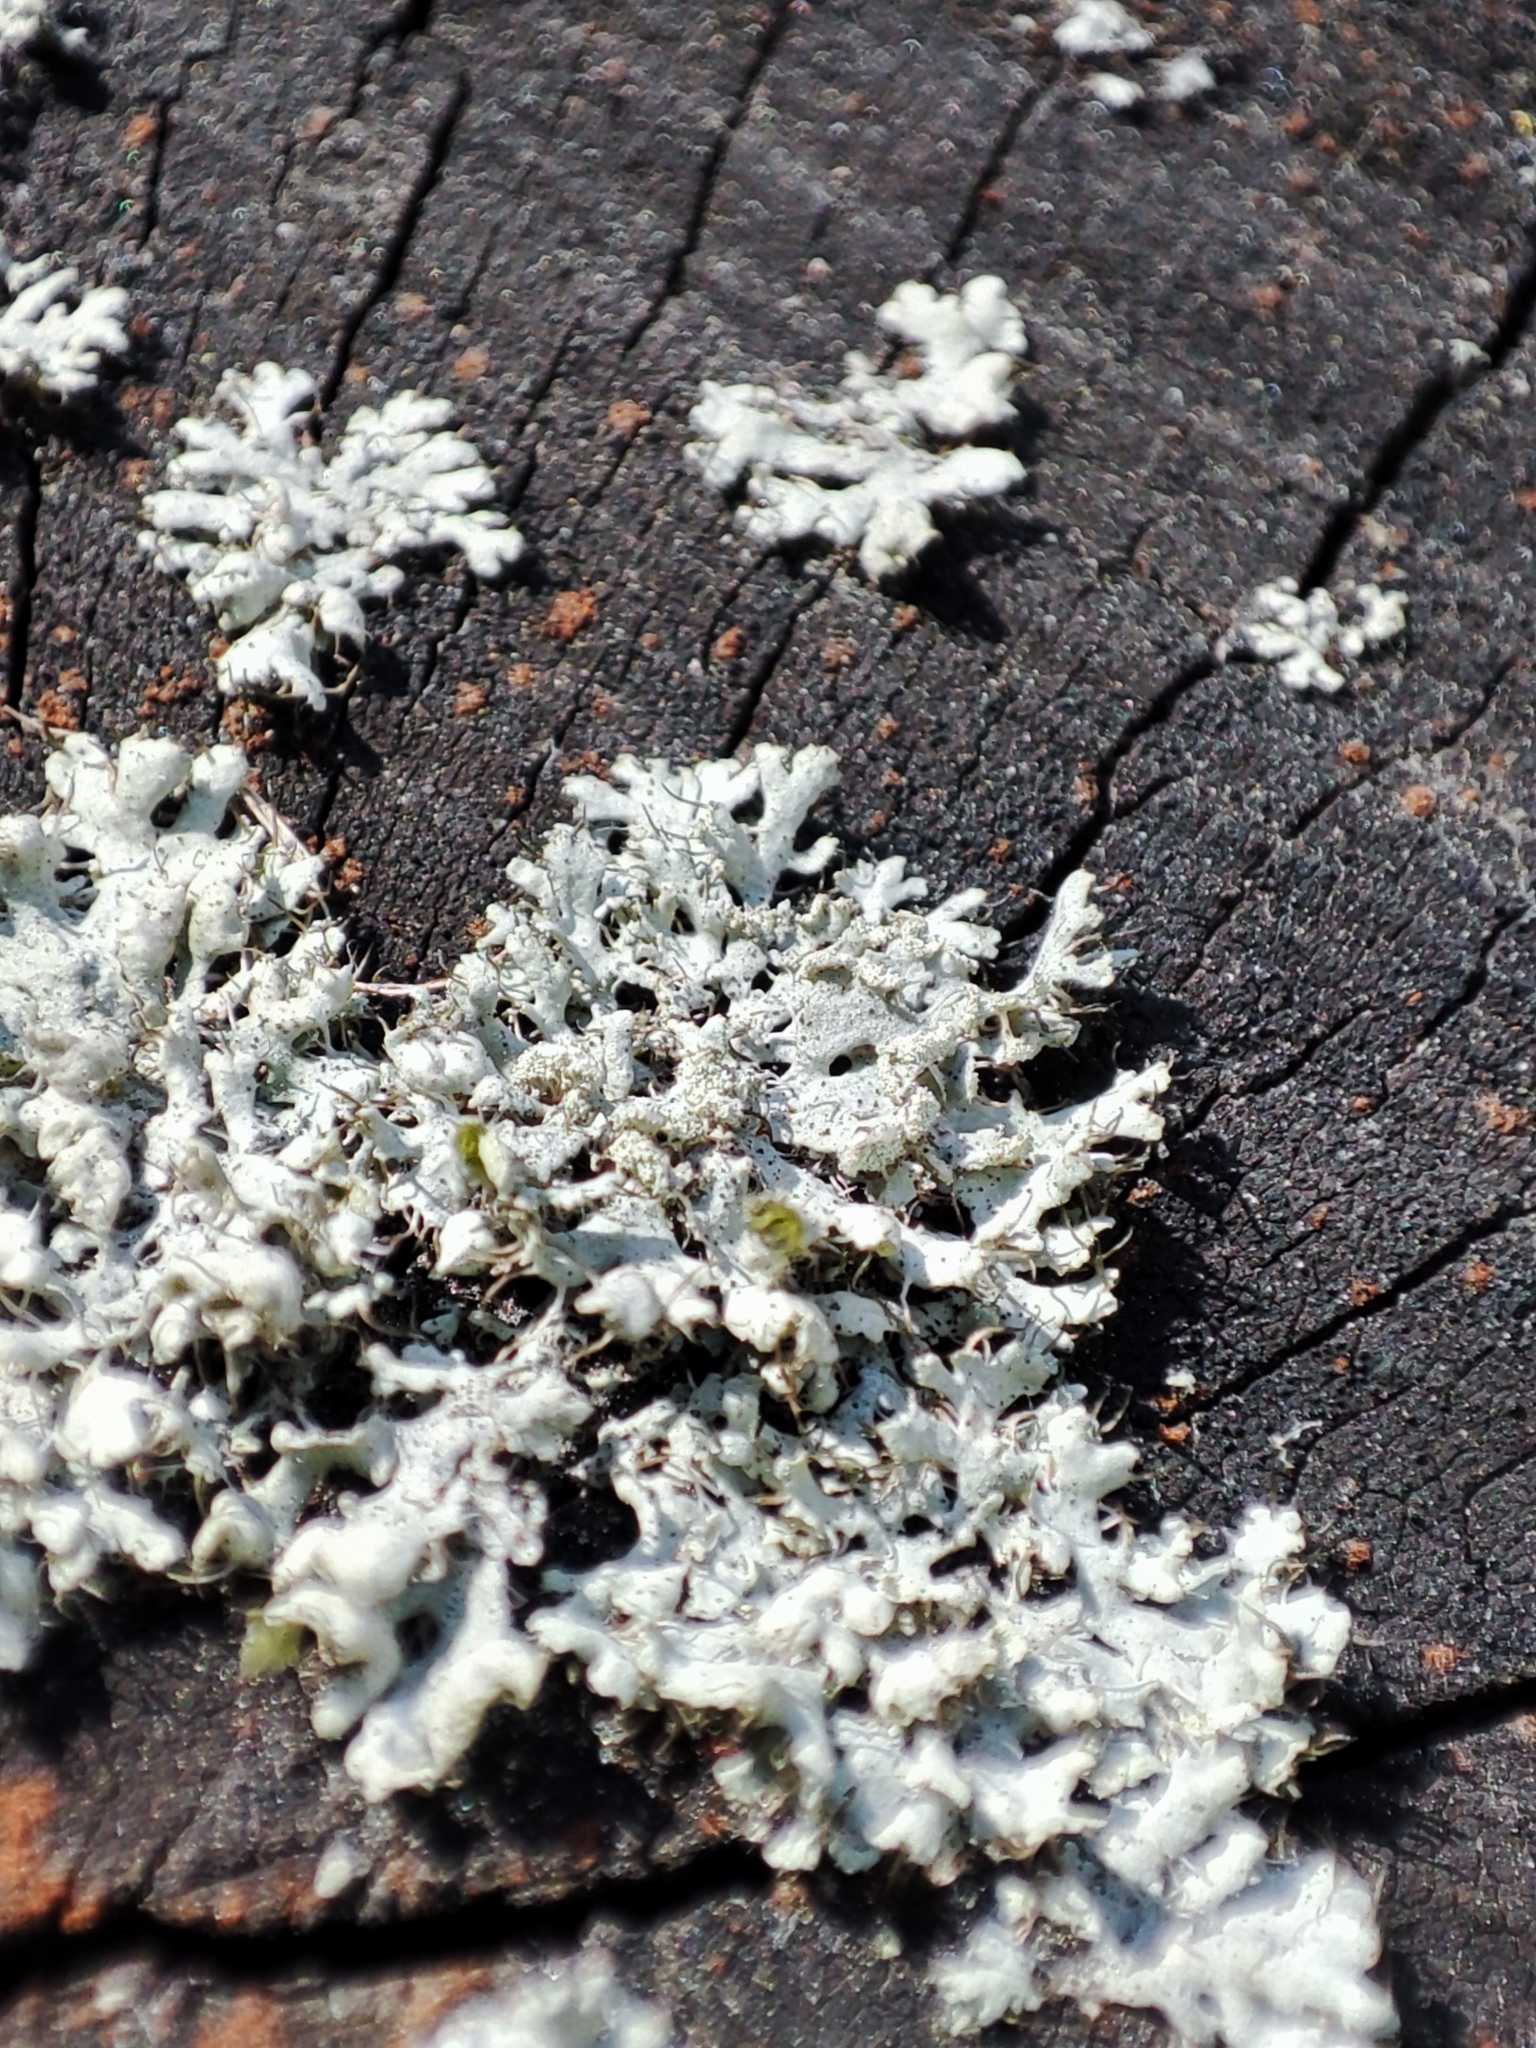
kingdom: Fungi
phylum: Ascomycota
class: Lecanoromycetes
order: Caliciales
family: Physciaceae
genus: Physcia
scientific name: Physcia tenella
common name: Fringed rosette lichen
